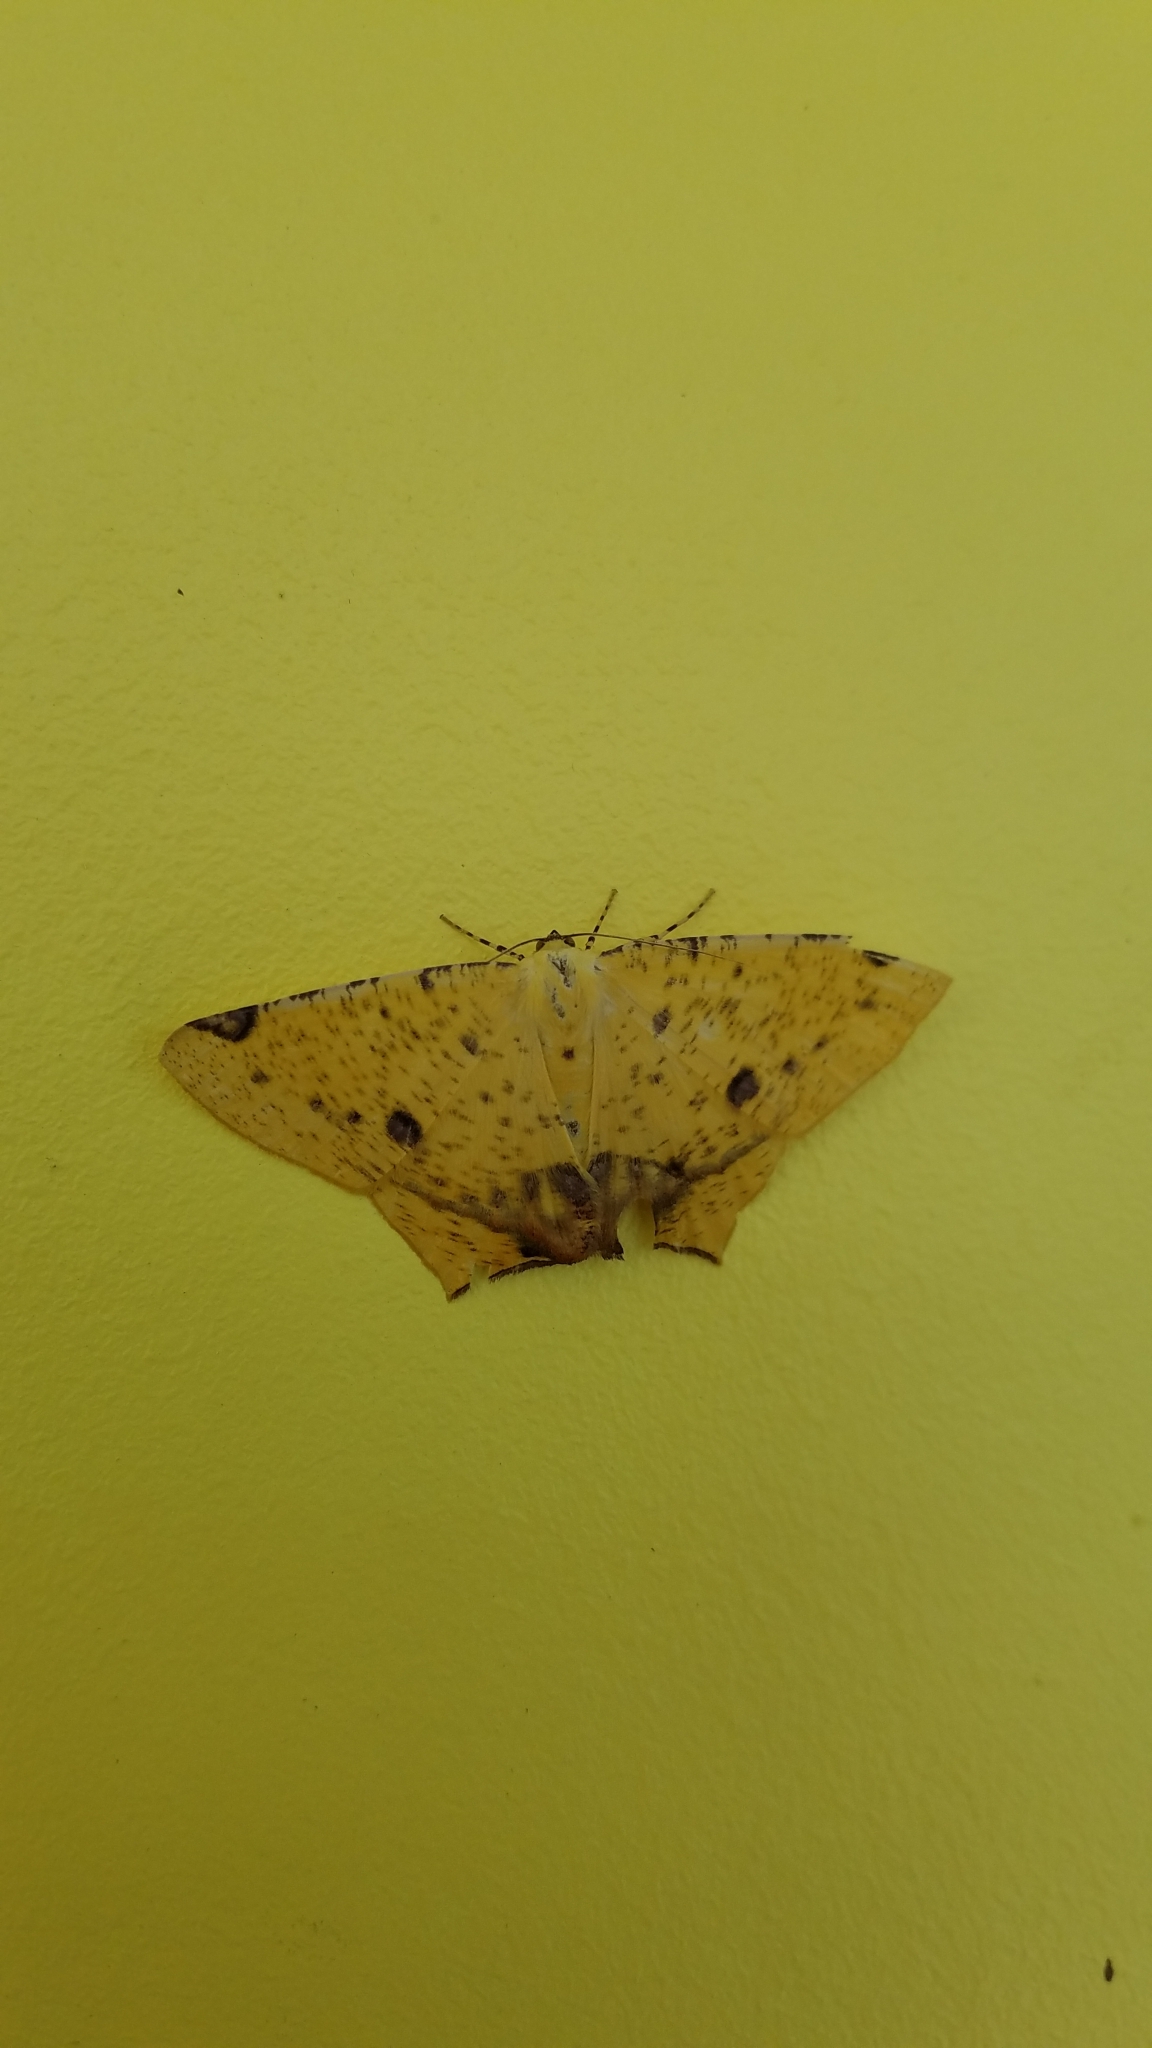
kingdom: Animalia
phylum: Arthropoda
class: Insecta
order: Lepidoptera
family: Geometridae
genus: Nepheloleuca
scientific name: Nepheloleuca politia
